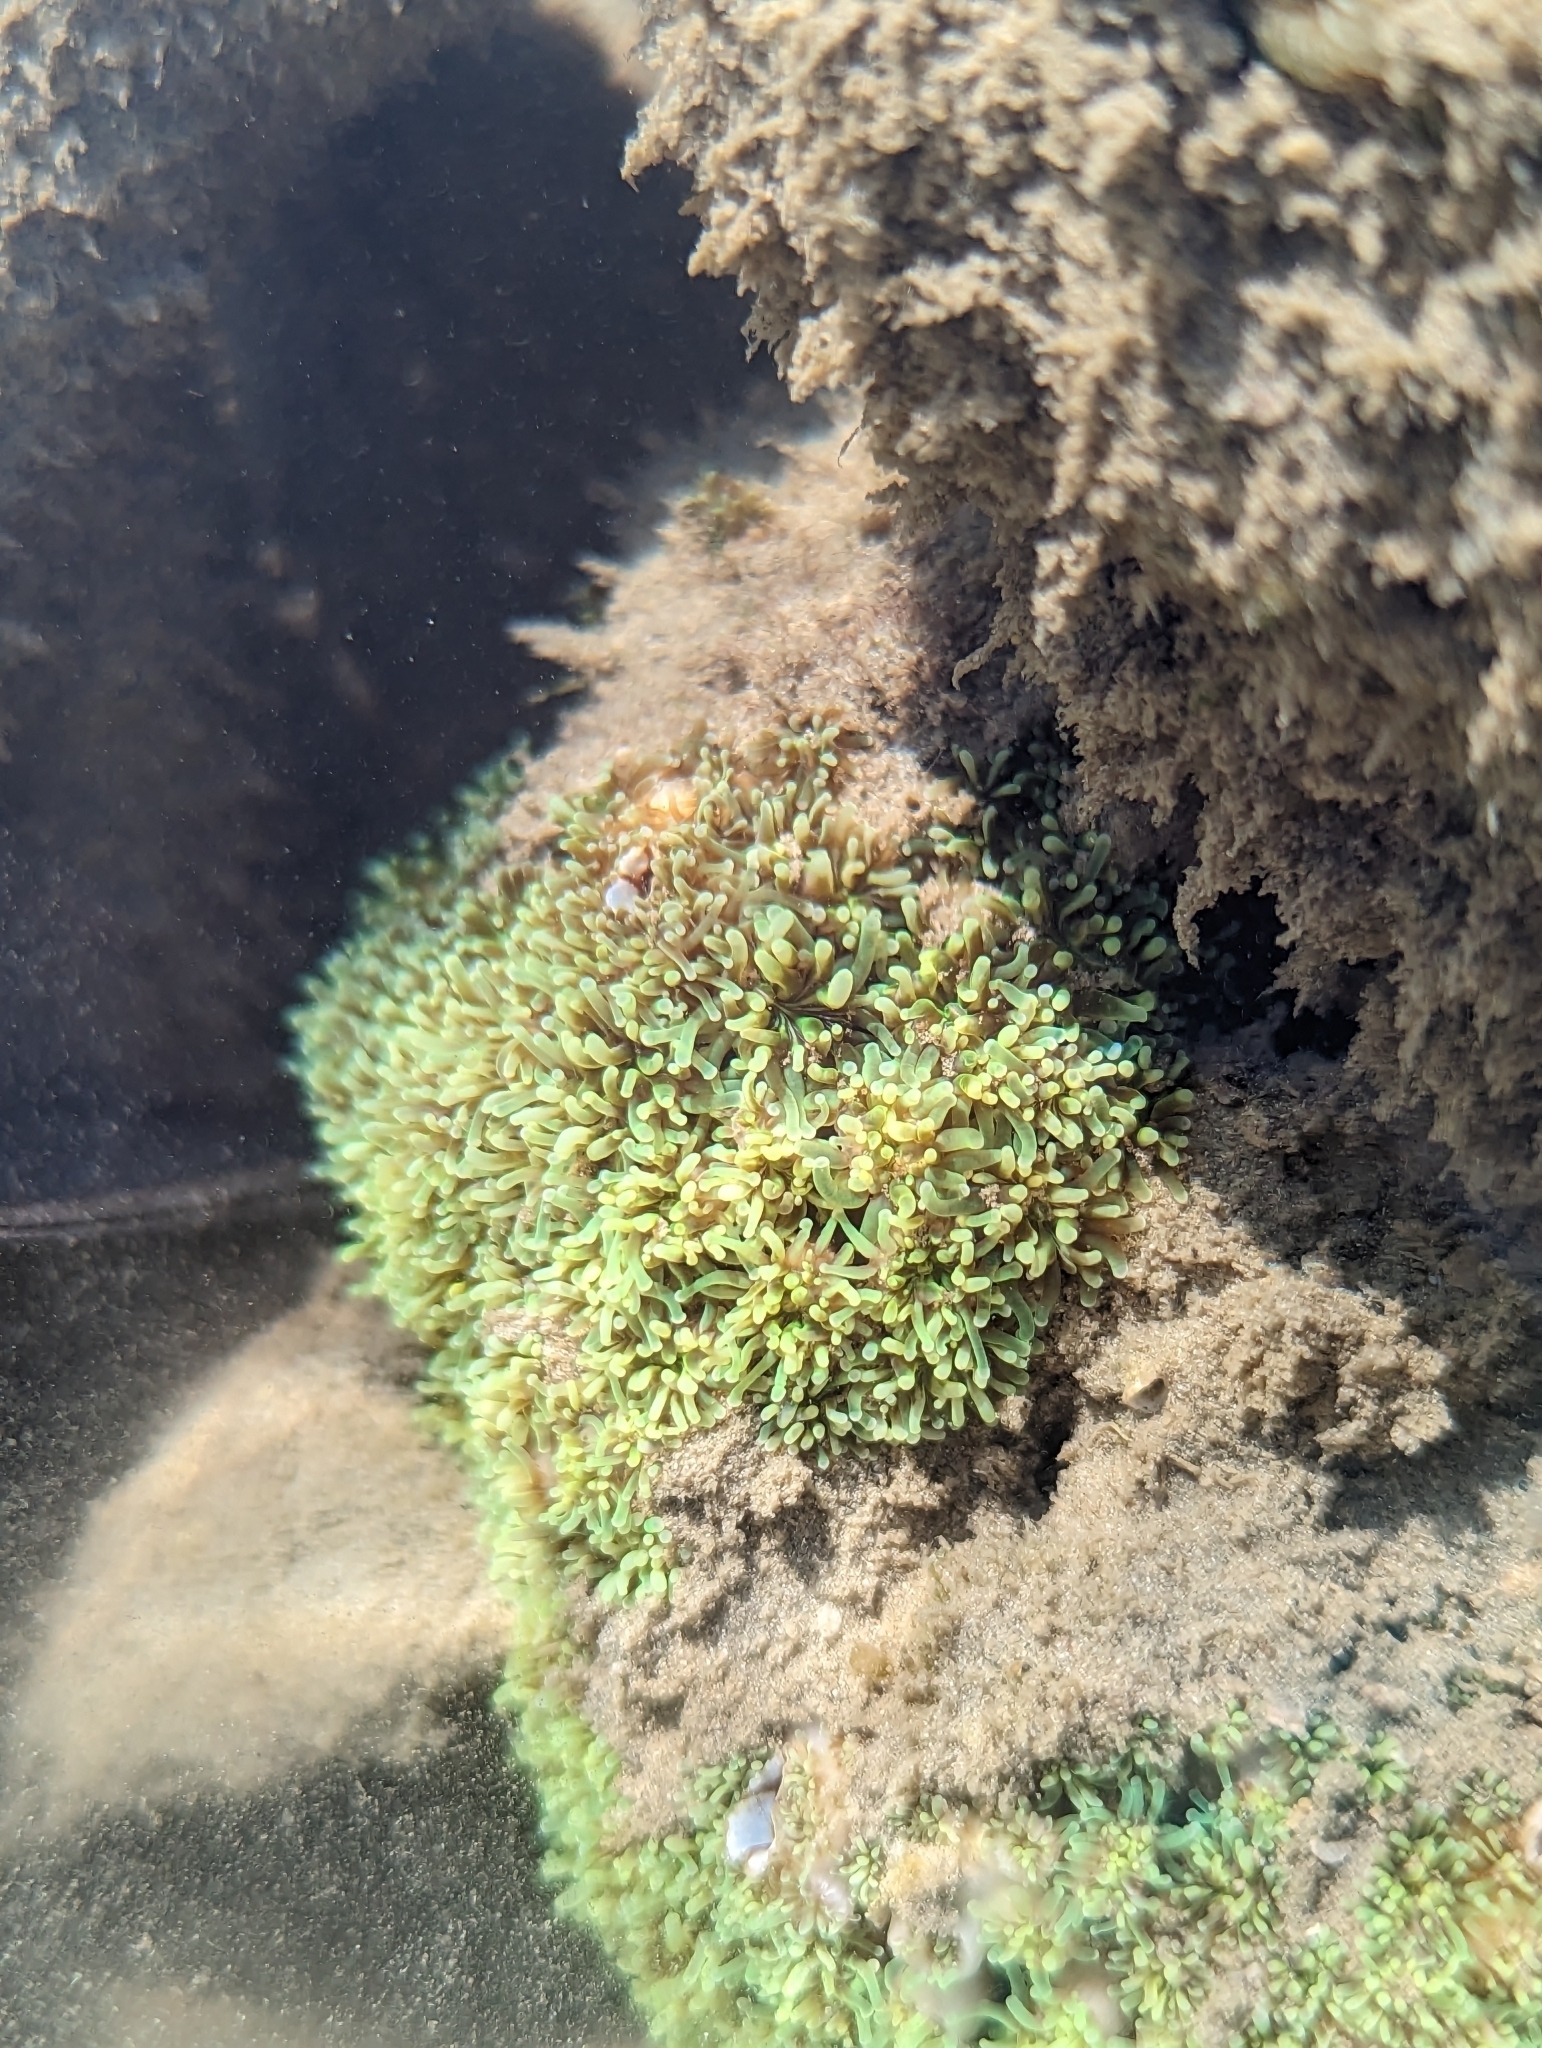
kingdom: Animalia
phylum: Cnidaria
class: Anthozoa
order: Scleractinia
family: Euphylliidae
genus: Galaxea
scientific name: Galaxea fascicularis
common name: Octopus coral
